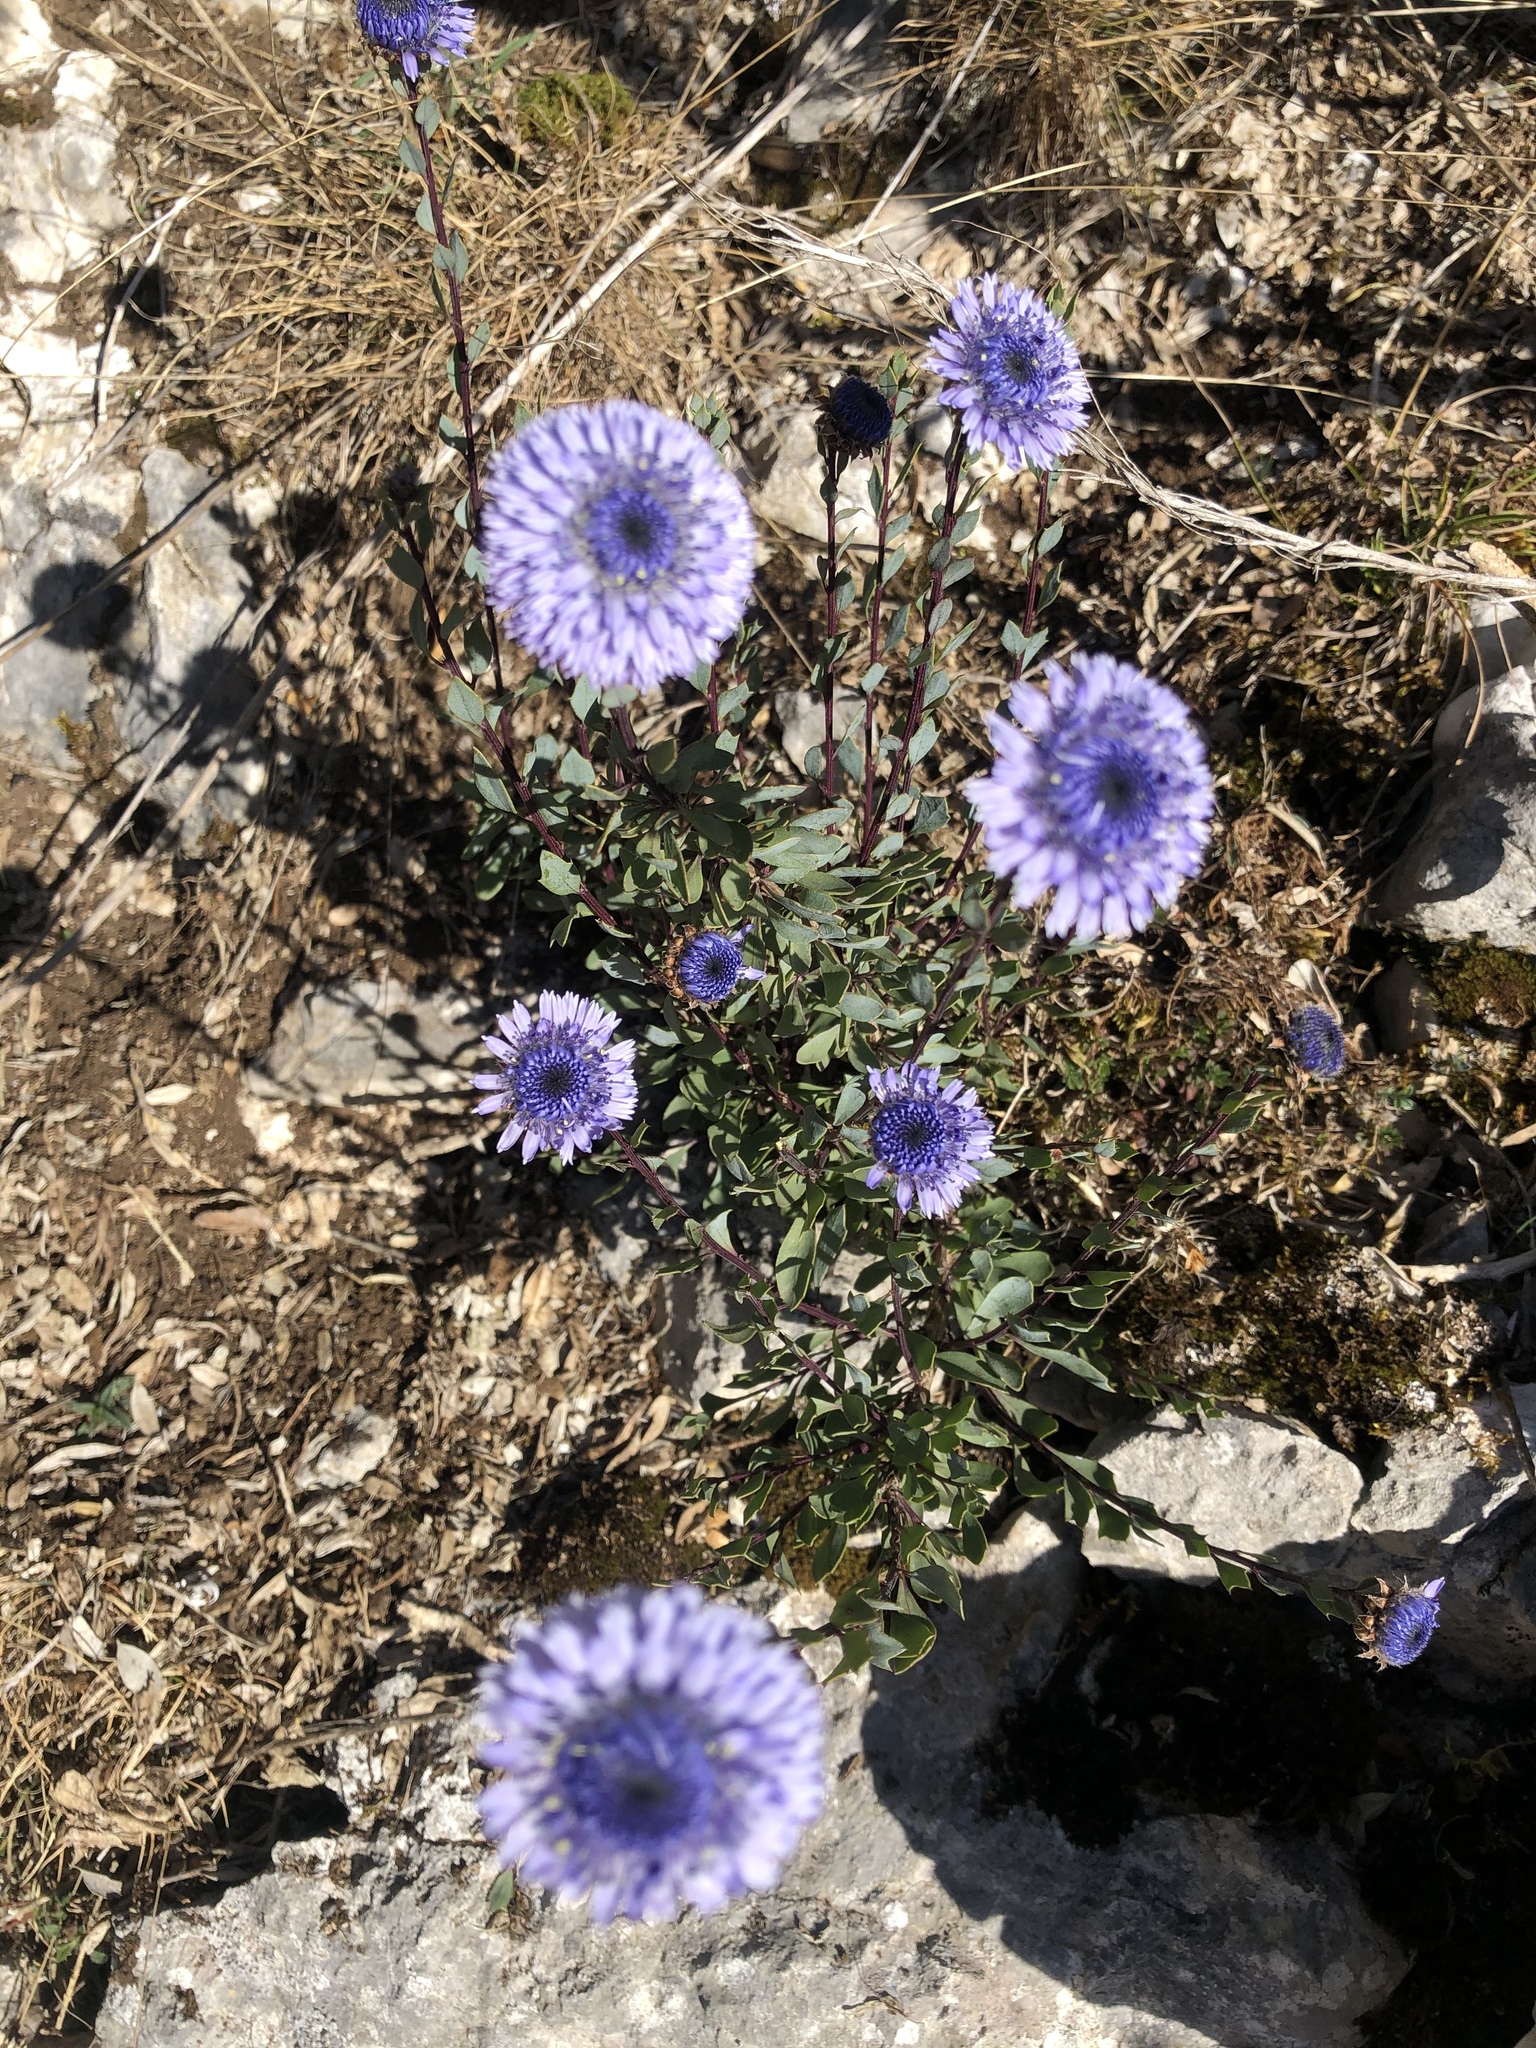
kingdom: Plantae
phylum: Tracheophyta
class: Magnoliopsida
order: Lamiales
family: Plantaginaceae
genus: Globularia
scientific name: Globularia alypum
